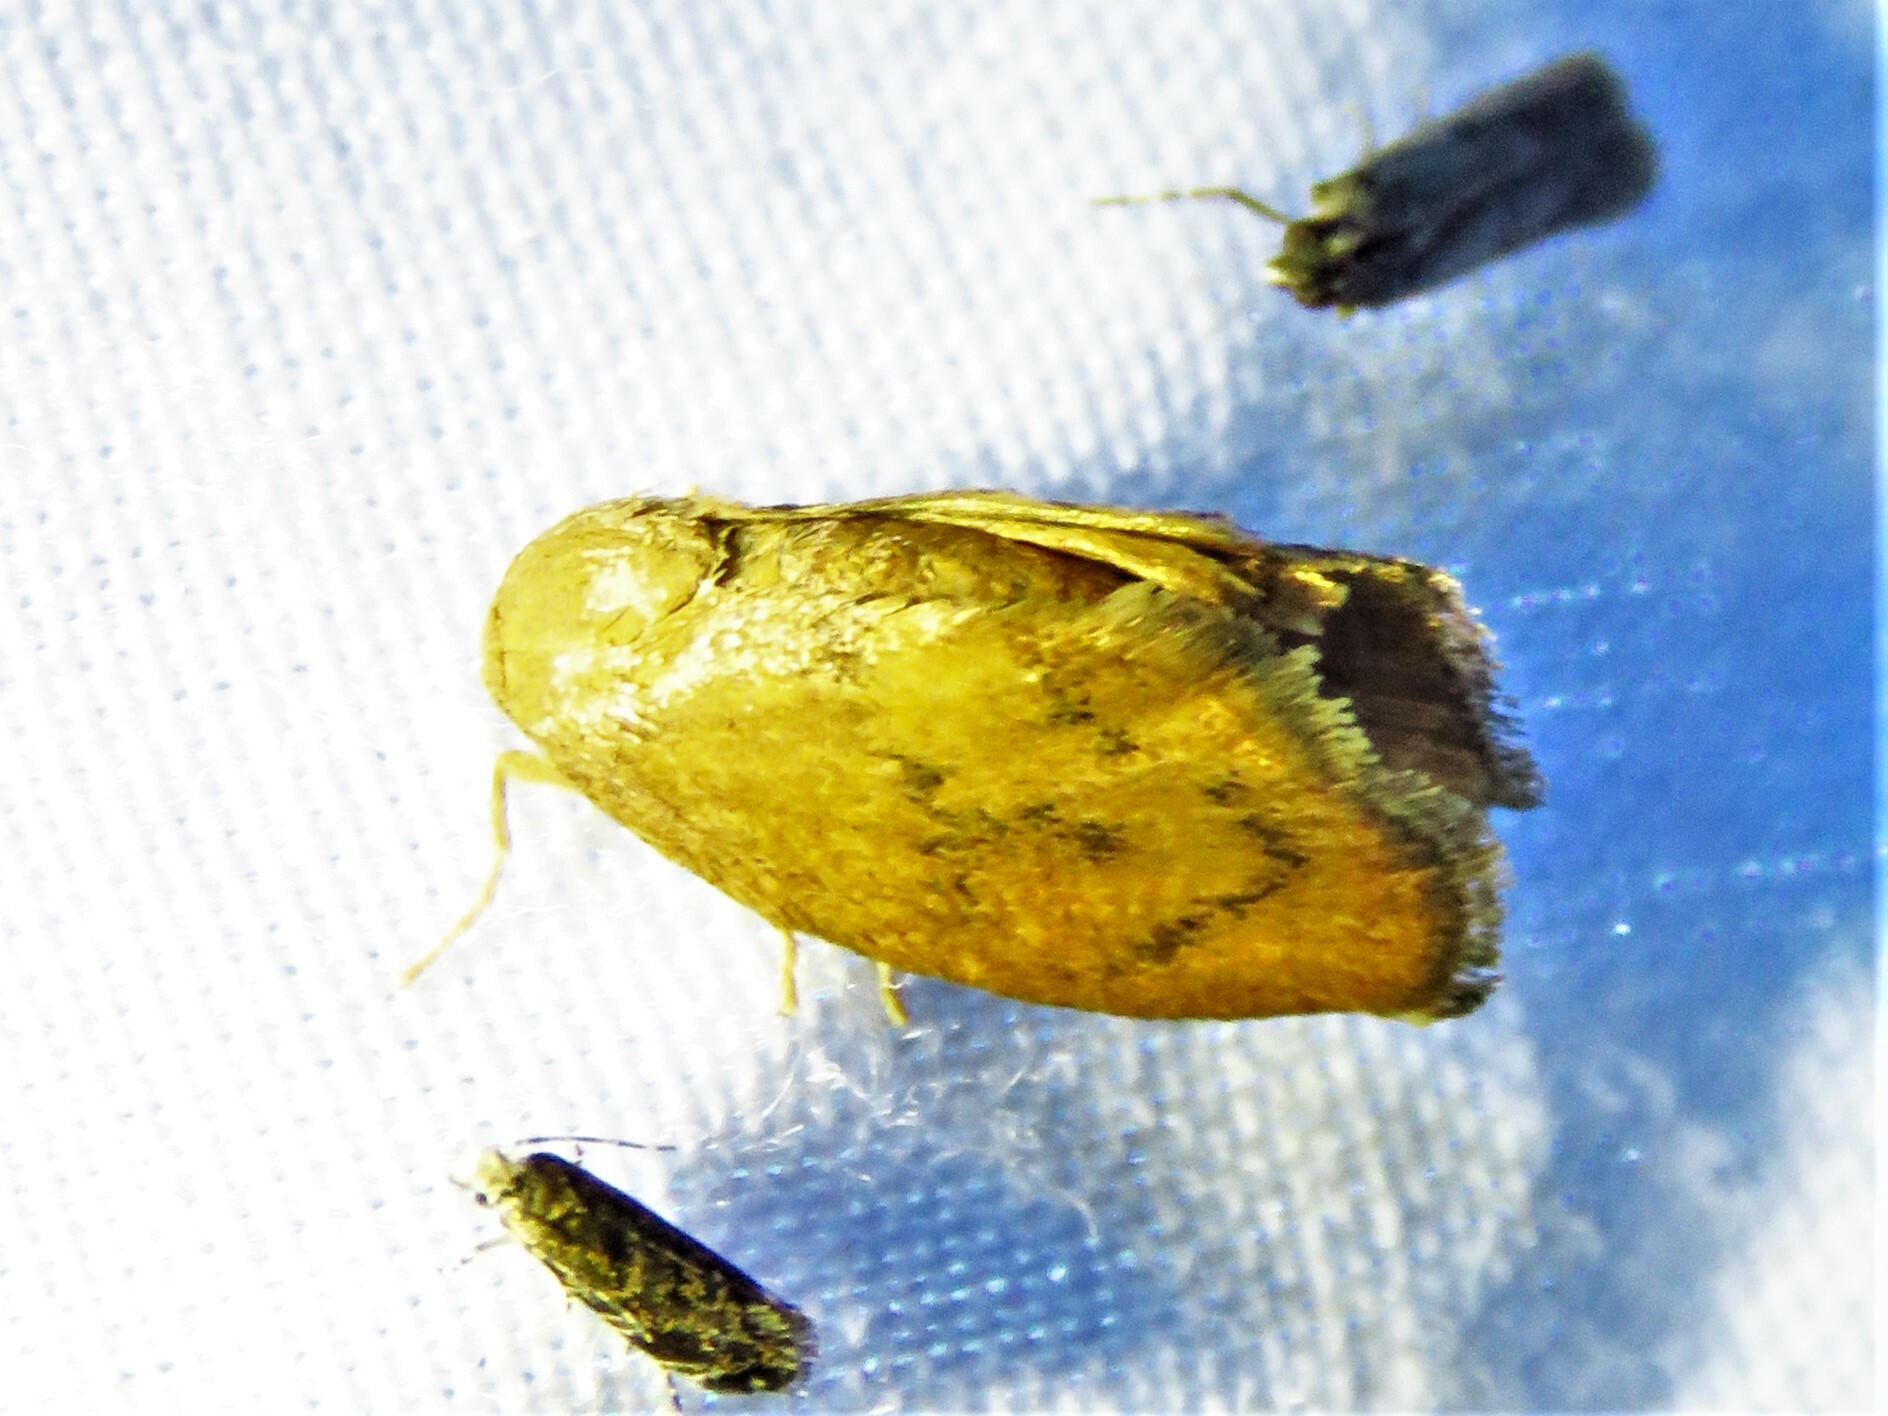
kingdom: Animalia
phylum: Arthropoda
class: Insecta
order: Lepidoptera
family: Limacodidae
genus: Heterogenea
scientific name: Heterogenea shurtleffi
